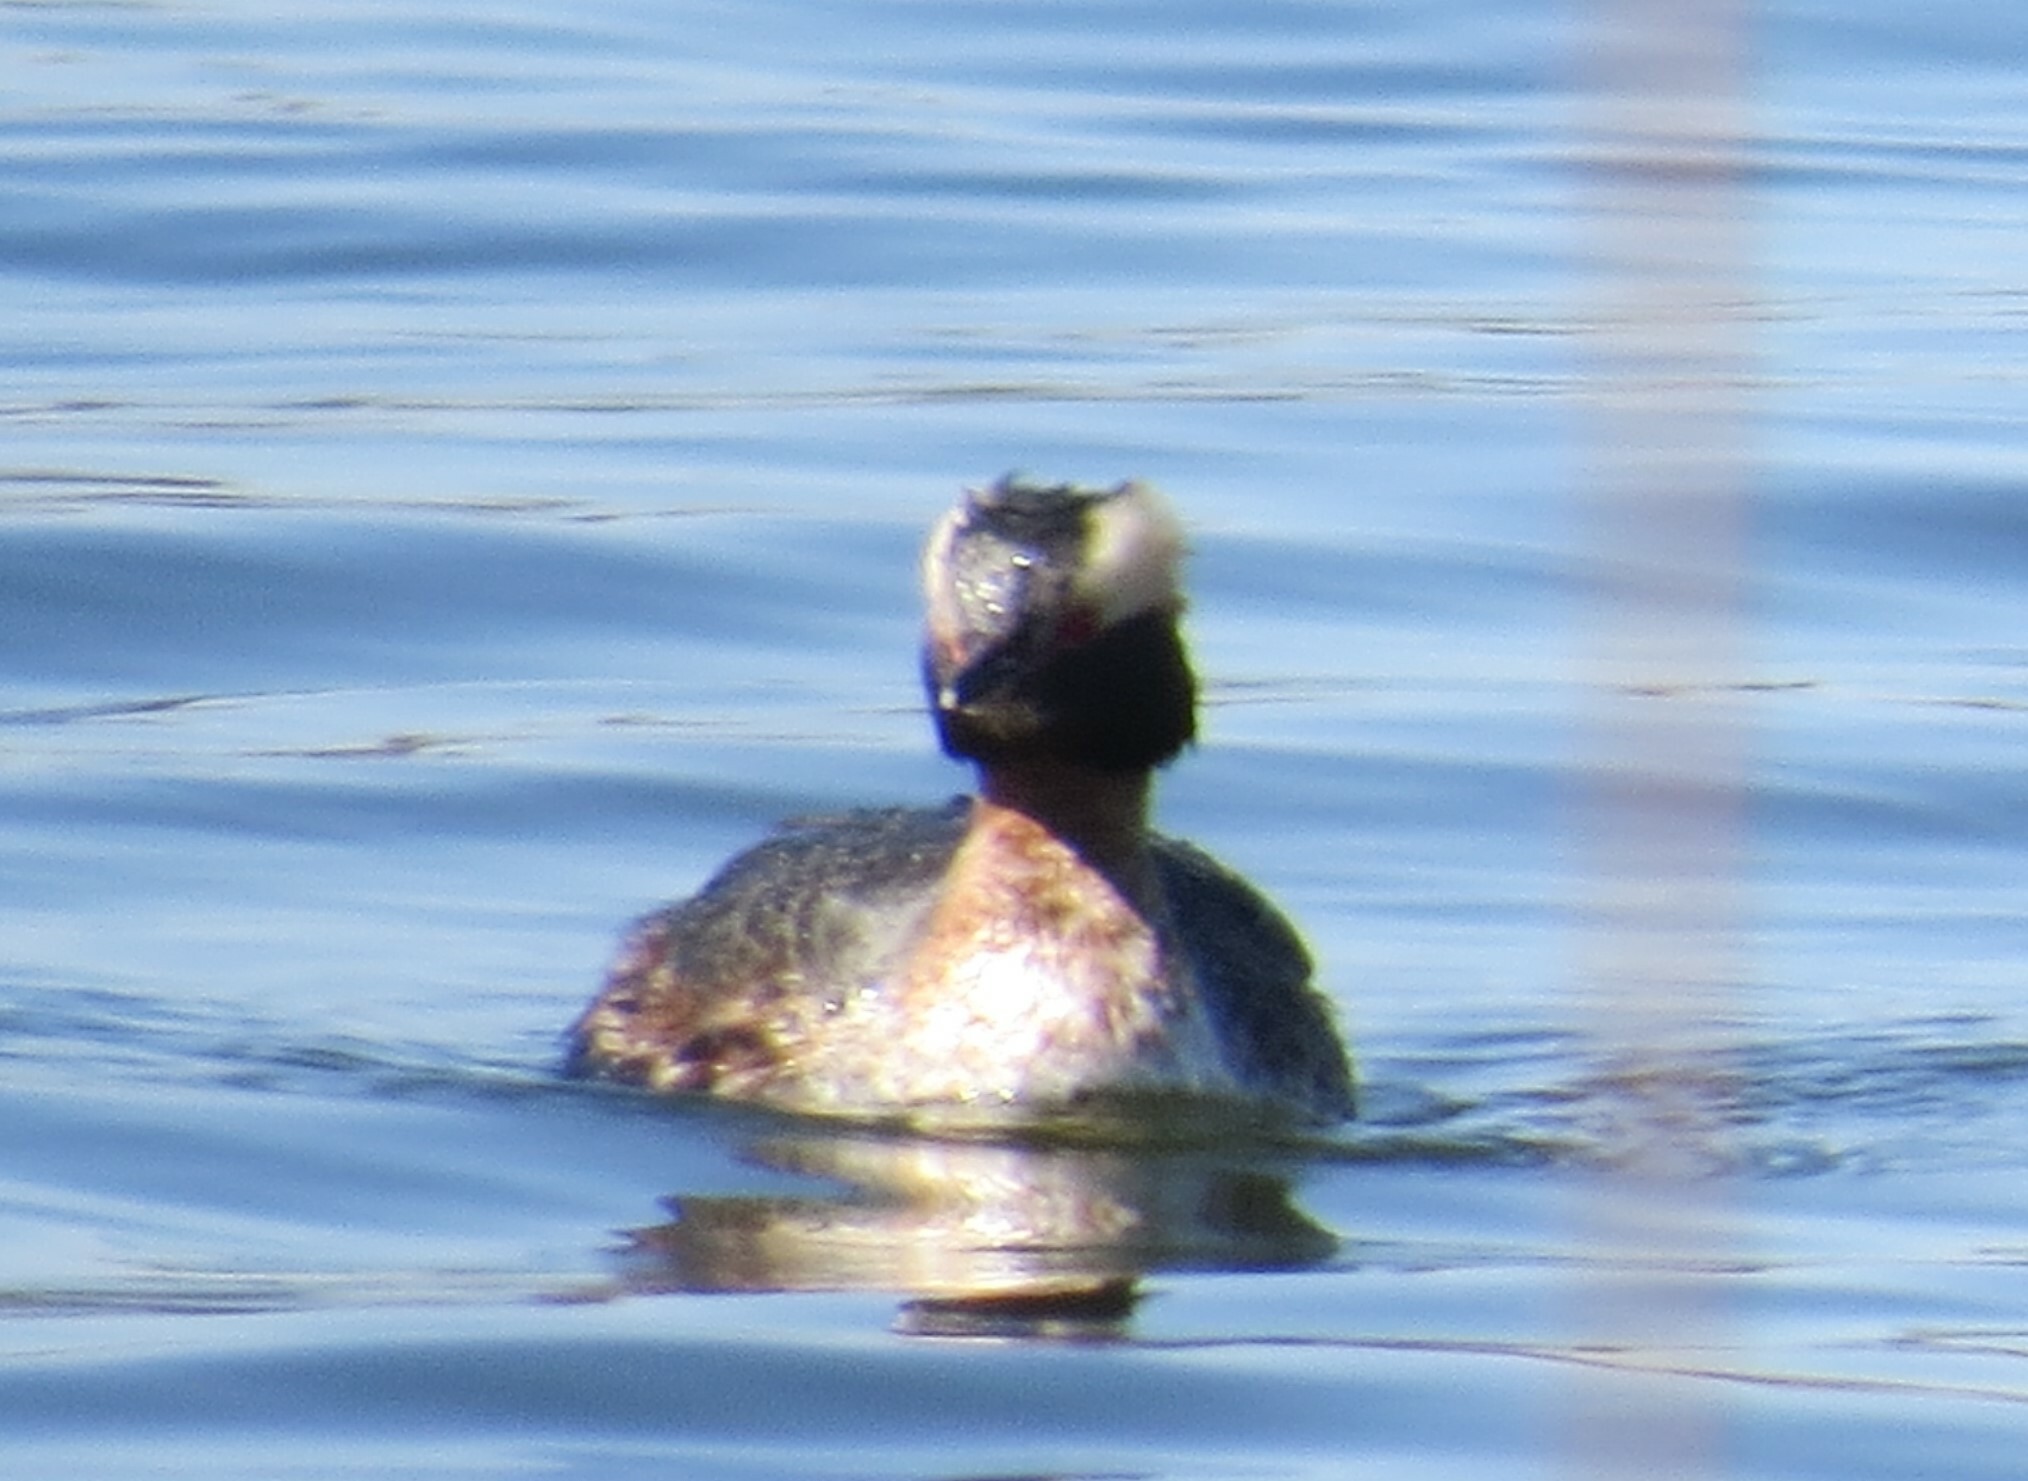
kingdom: Animalia
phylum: Chordata
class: Aves
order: Podicipediformes
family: Podicipedidae
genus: Podiceps
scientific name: Podiceps auritus
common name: Horned grebe
